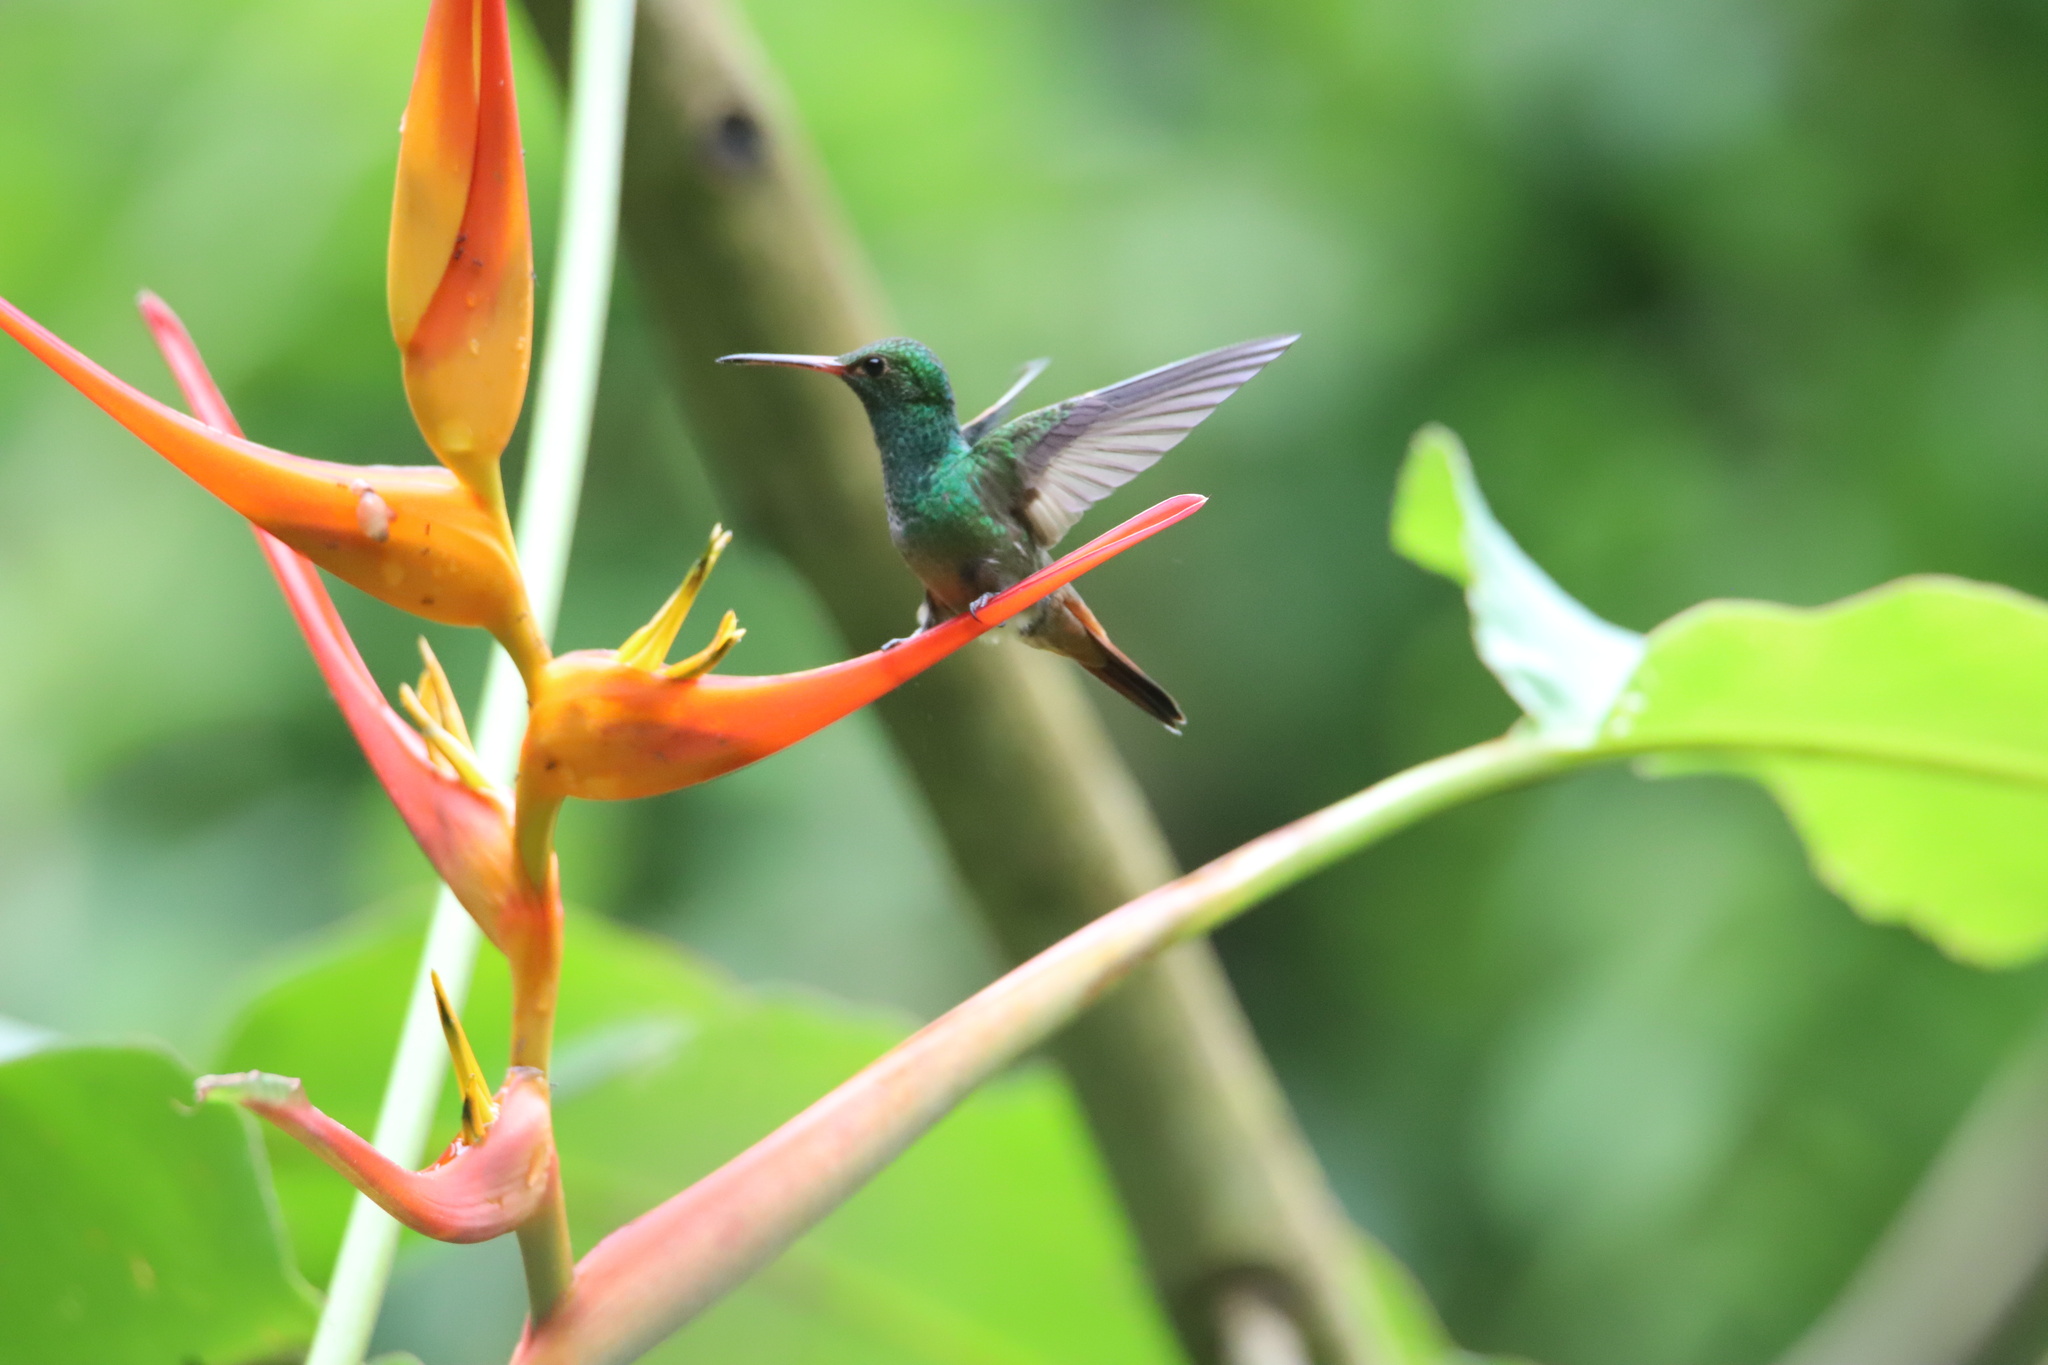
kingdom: Animalia
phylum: Chordata
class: Aves
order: Apodiformes
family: Trochilidae
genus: Amazilia
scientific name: Amazilia tzacatl
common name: Rufous-tailed hummingbird
